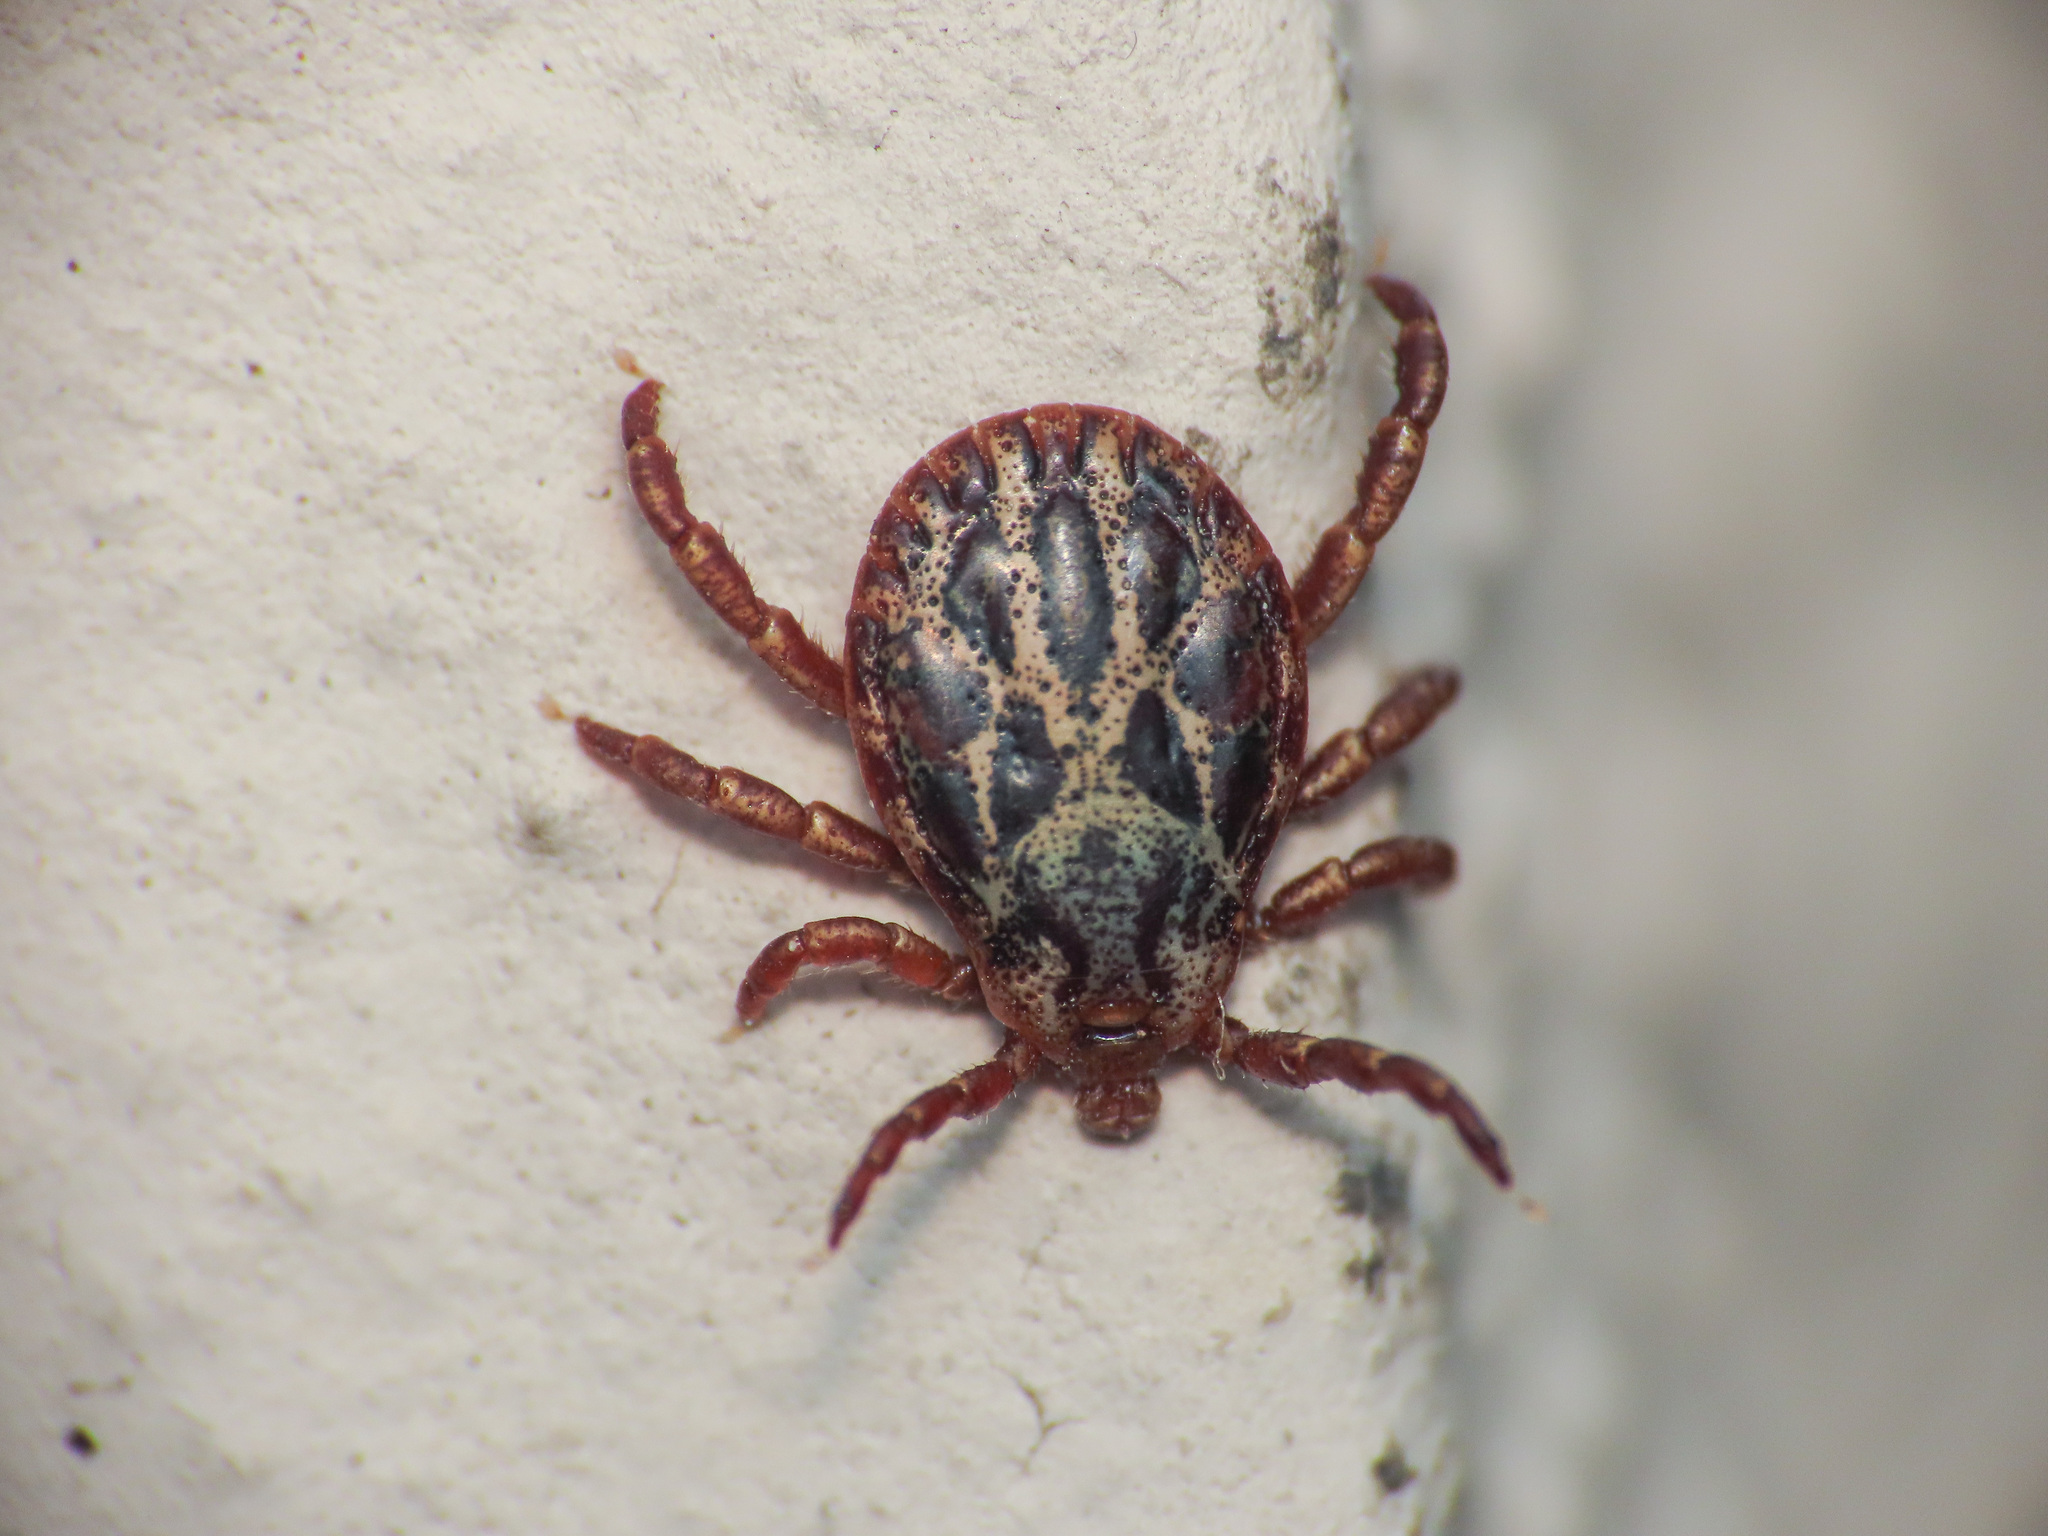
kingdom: Animalia
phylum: Arthropoda
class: Arachnida
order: Ixodida
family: Ixodidae
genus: Dermacentor
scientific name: Dermacentor marginatus
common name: Ornate sheep tick
